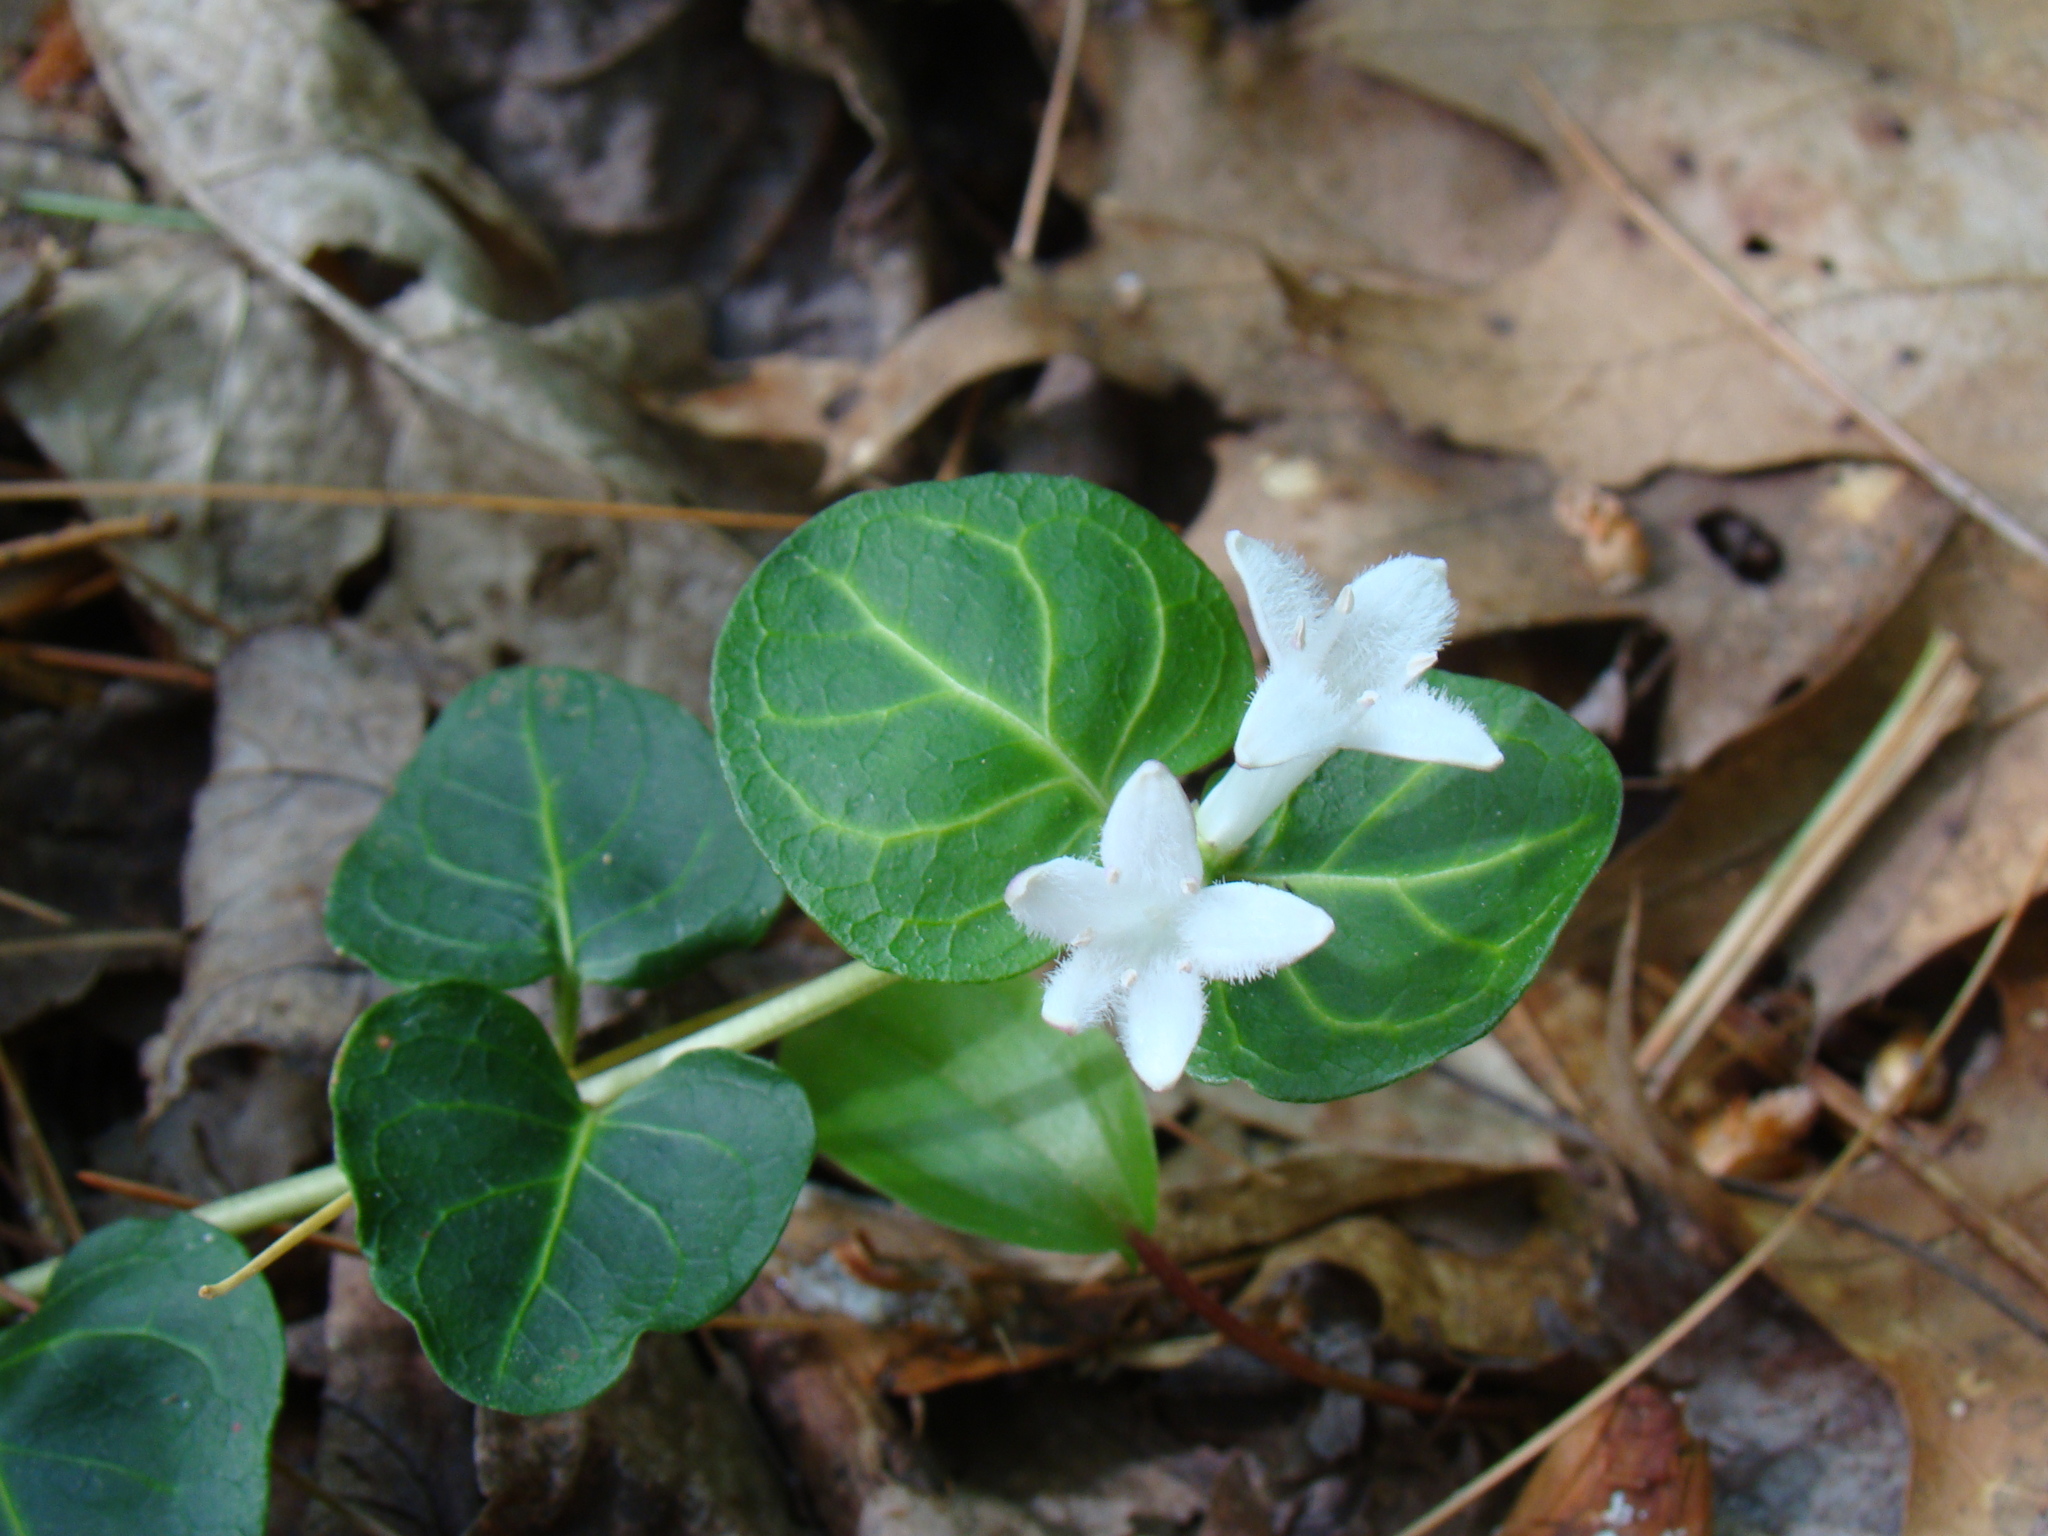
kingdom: Plantae
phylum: Tracheophyta
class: Magnoliopsida
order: Gentianales
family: Rubiaceae
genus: Mitchella
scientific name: Mitchella repens
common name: Partridge-berry
